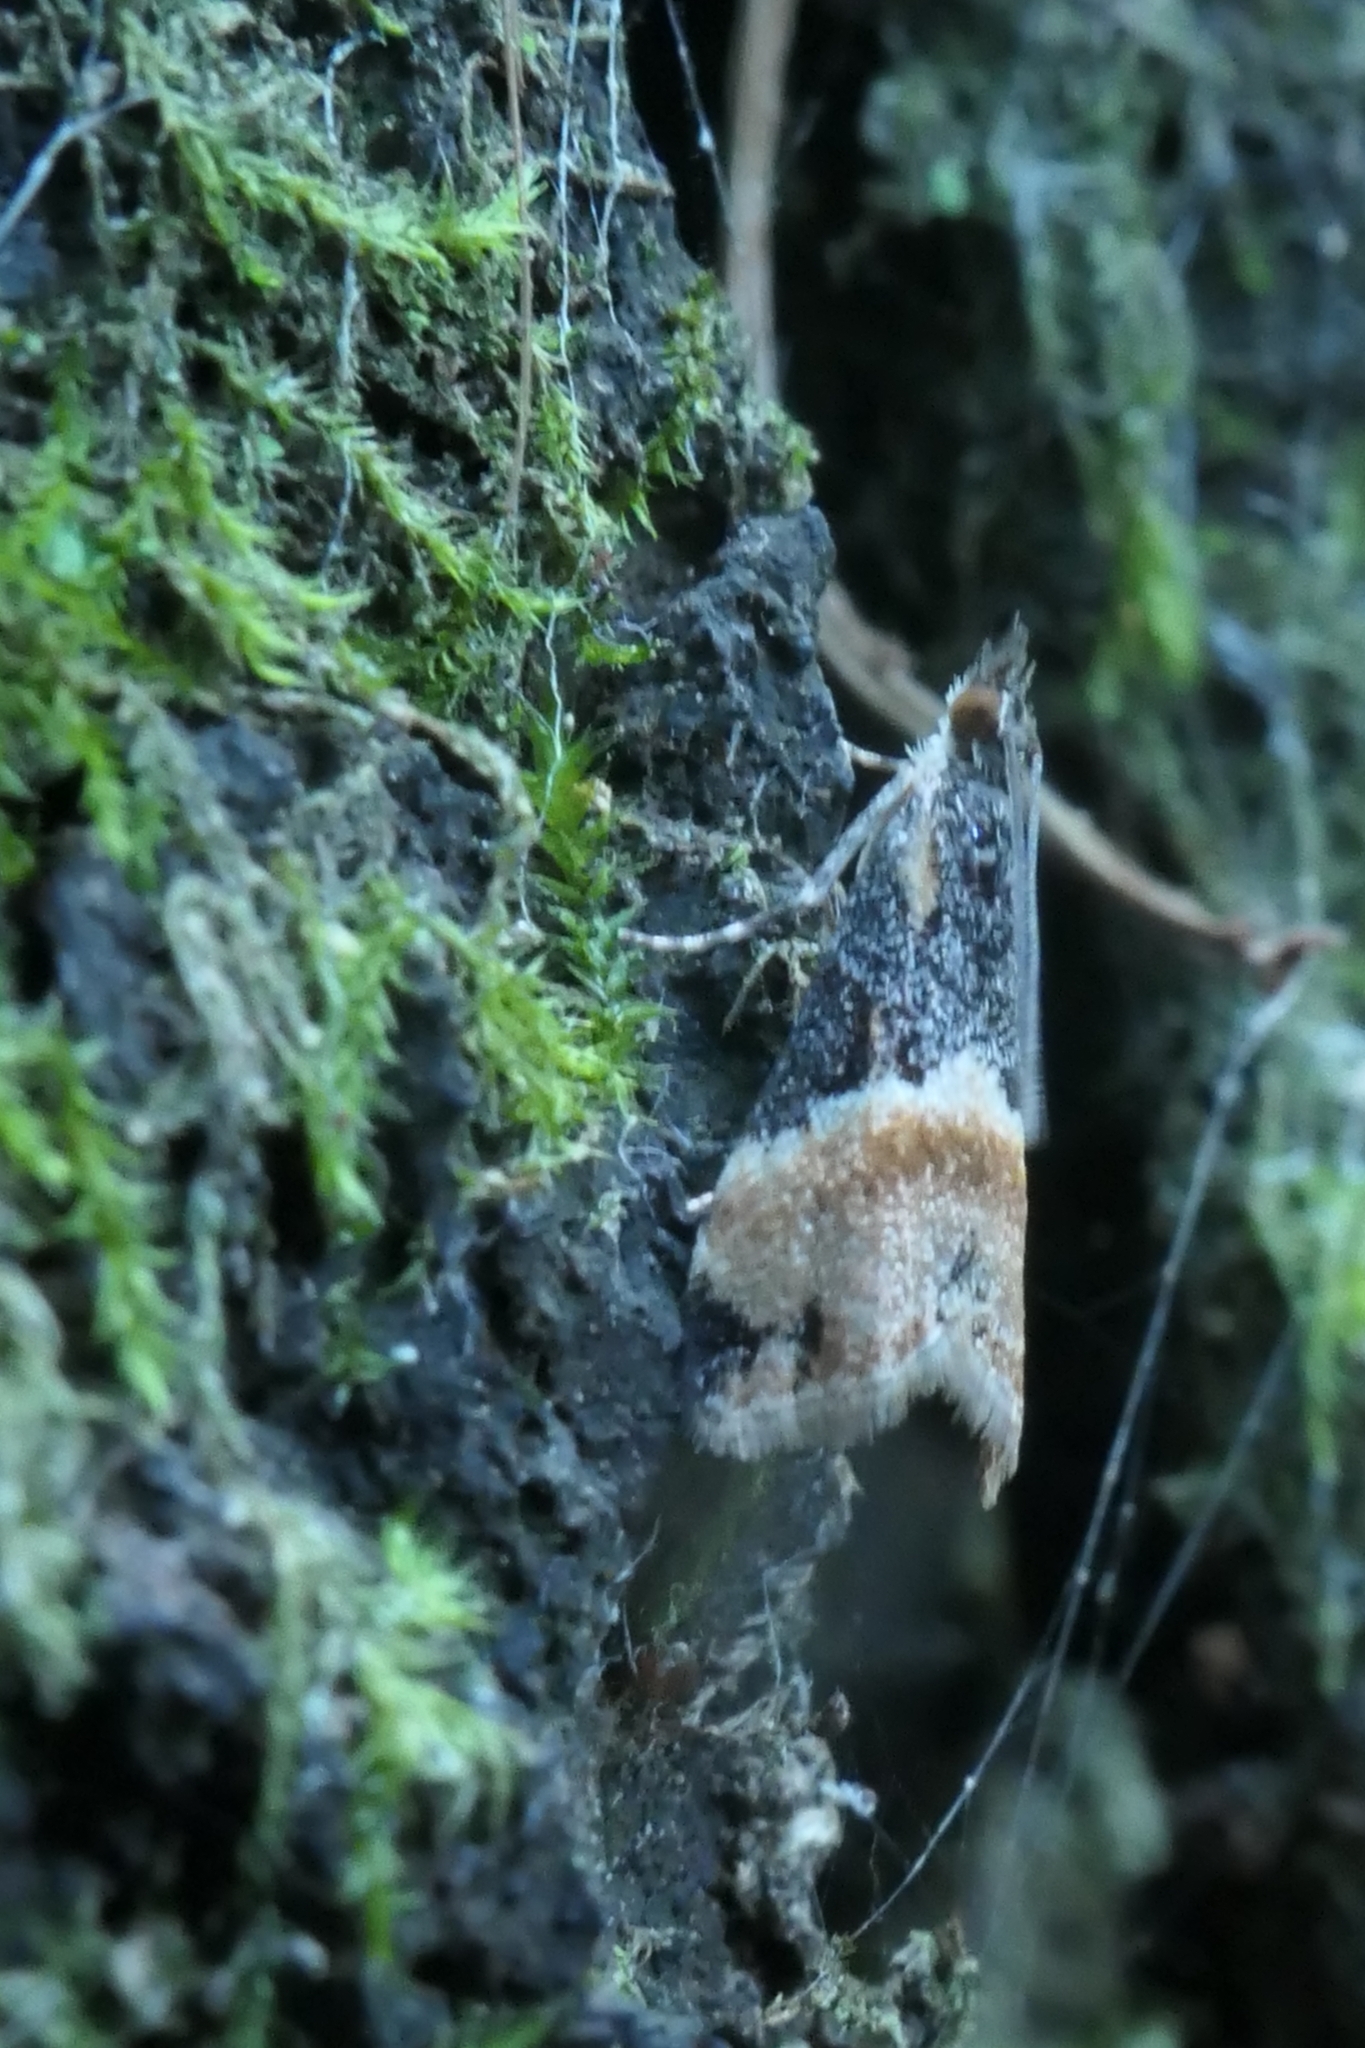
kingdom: Animalia
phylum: Arthropoda
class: Insecta
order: Lepidoptera
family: Crambidae
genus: Eudonia
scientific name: Eudonia chlamydota
